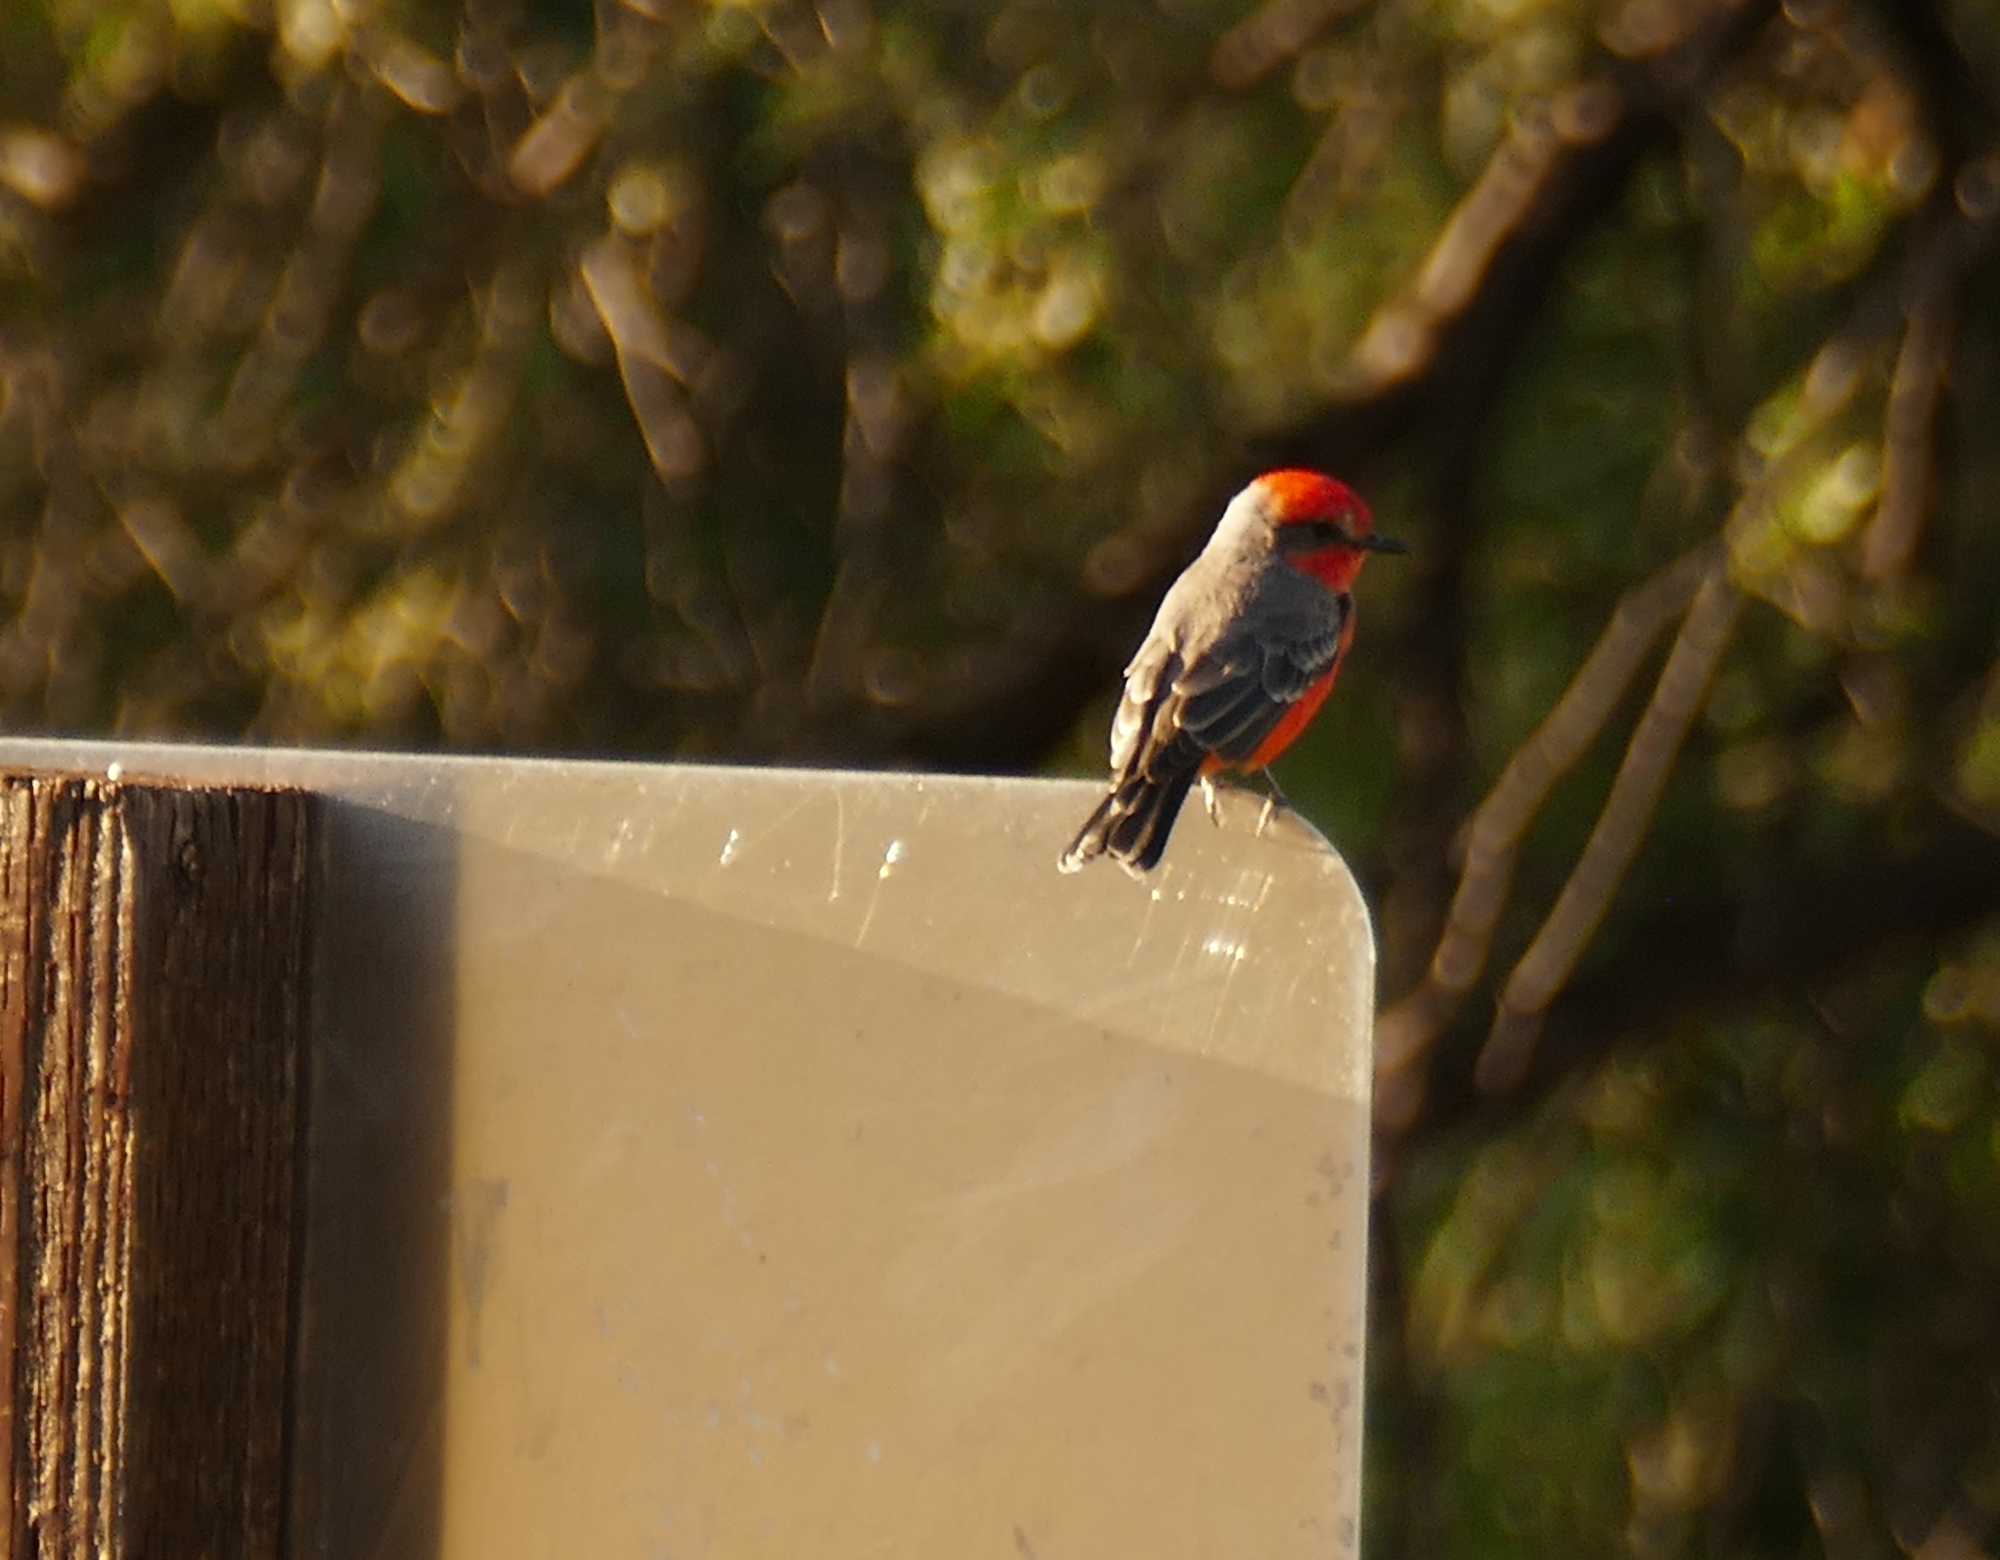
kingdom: Animalia
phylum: Chordata
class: Aves
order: Passeriformes
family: Tyrannidae
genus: Pyrocephalus
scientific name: Pyrocephalus rubinus
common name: Vermilion flycatcher
